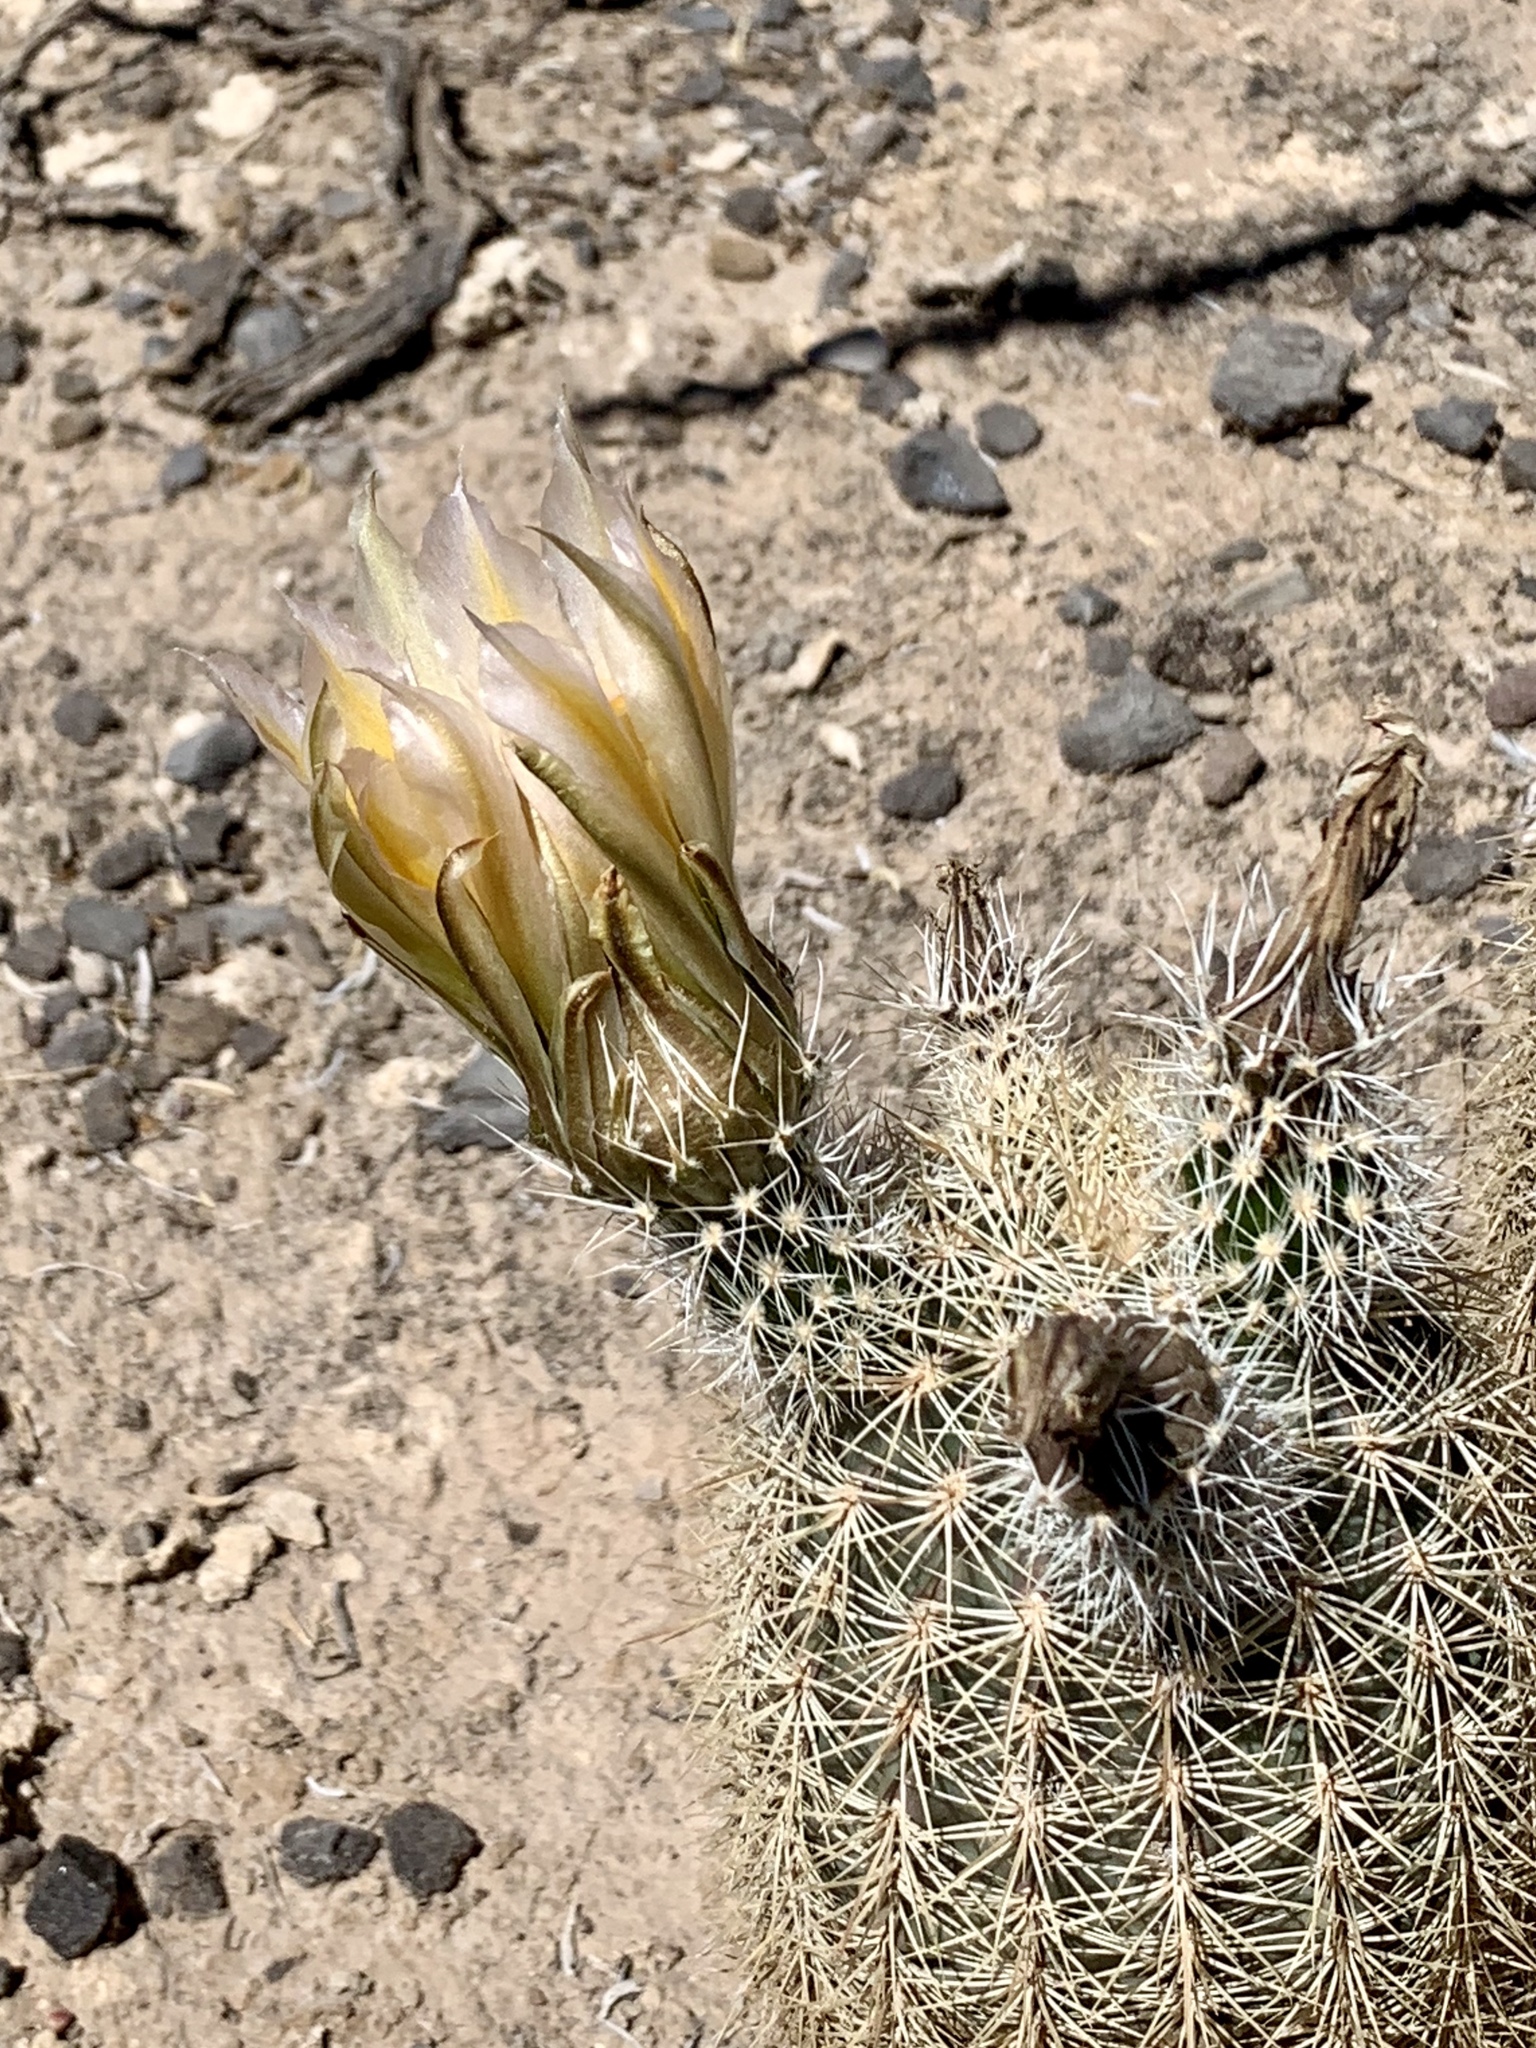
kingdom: Plantae
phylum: Tracheophyta
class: Magnoliopsida
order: Caryophyllales
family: Cactaceae
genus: Echinocereus
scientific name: Echinocereus dasyacanthus
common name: Spiny hedgehog cactus
